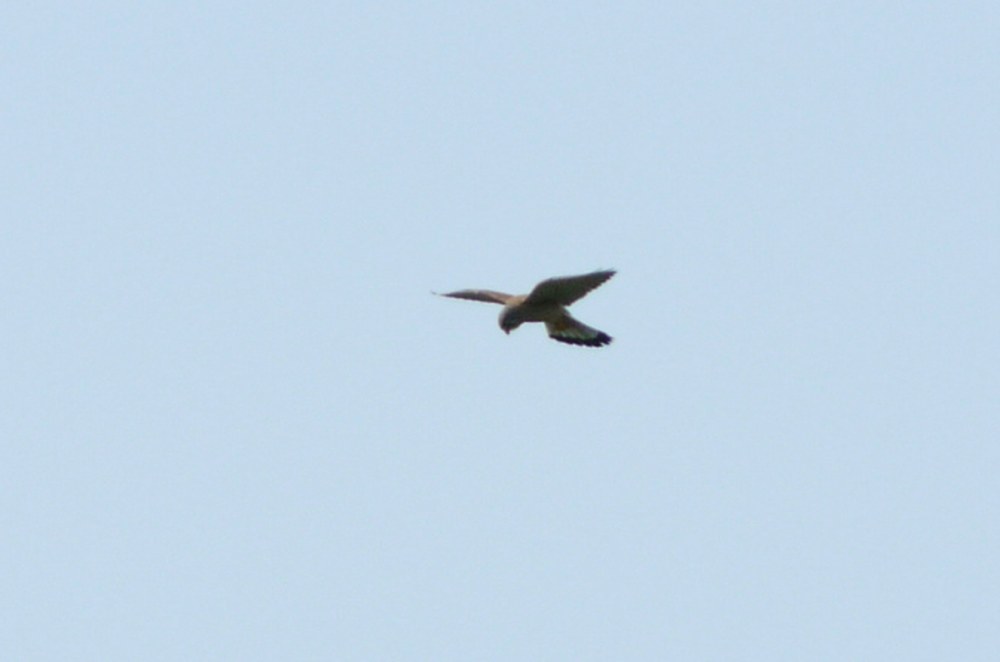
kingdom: Animalia
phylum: Chordata
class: Aves
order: Falconiformes
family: Falconidae
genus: Falco
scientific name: Falco tinnunculus
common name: Common kestrel
